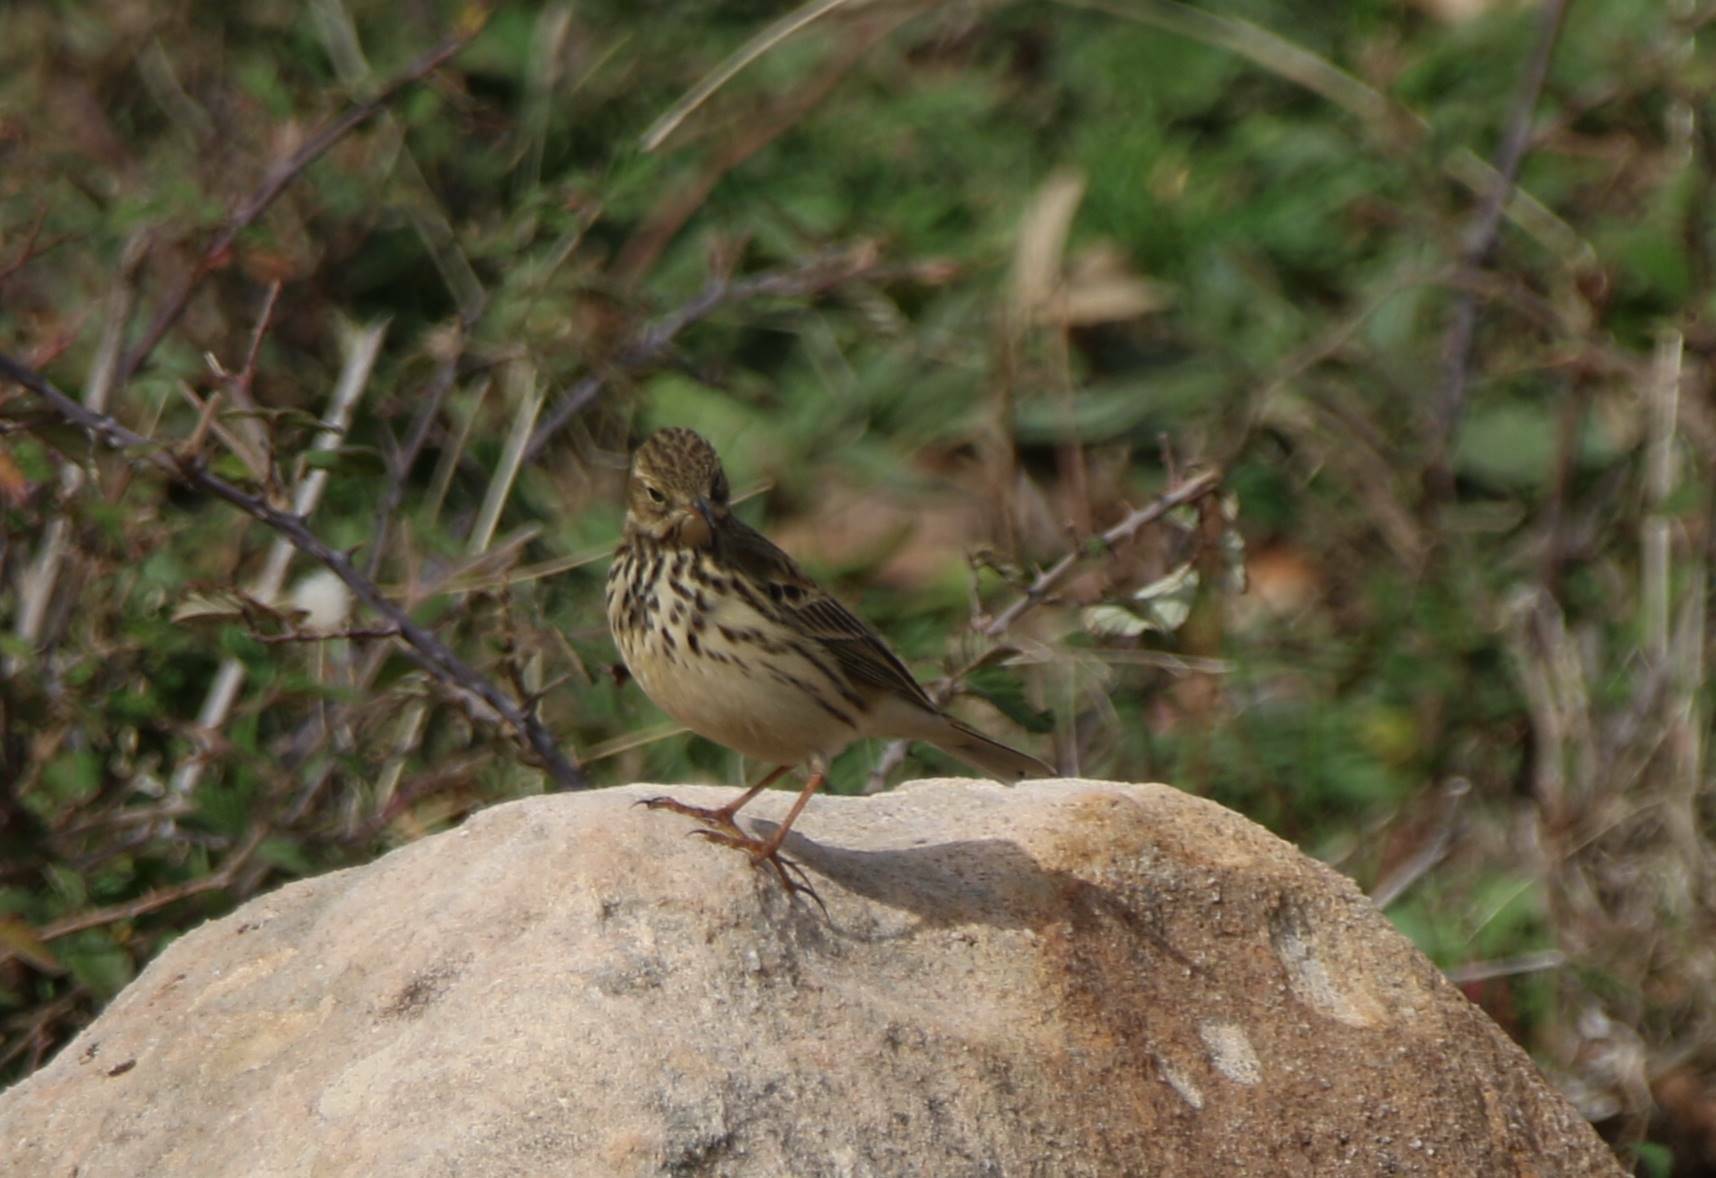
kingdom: Animalia
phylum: Chordata
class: Aves
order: Passeriformes
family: Motacillidae
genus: Anthus
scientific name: Anthus pratensis
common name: Meadow pipit
